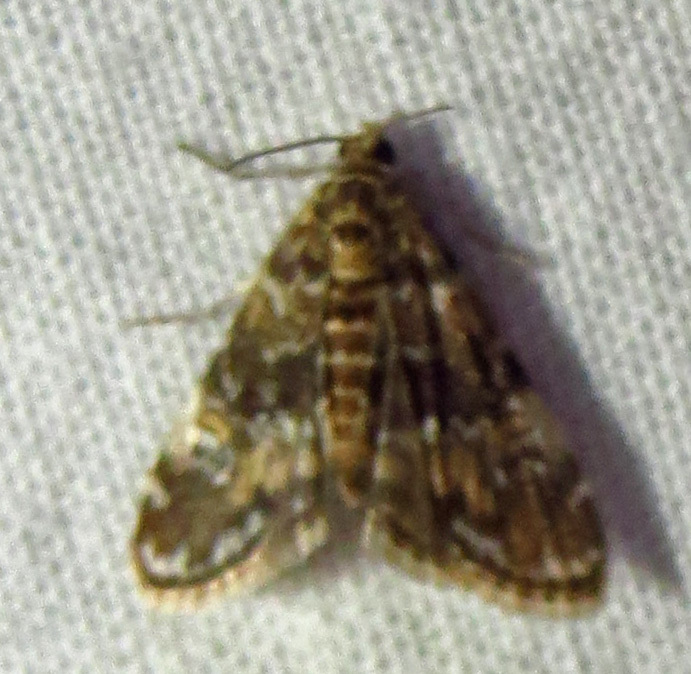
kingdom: Animalia
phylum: Arthropoda
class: Insecta
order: Lepidoptera
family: Crambidae
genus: Elophila
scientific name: Elophila obliteralis
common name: Waterlily leafcutter moth
